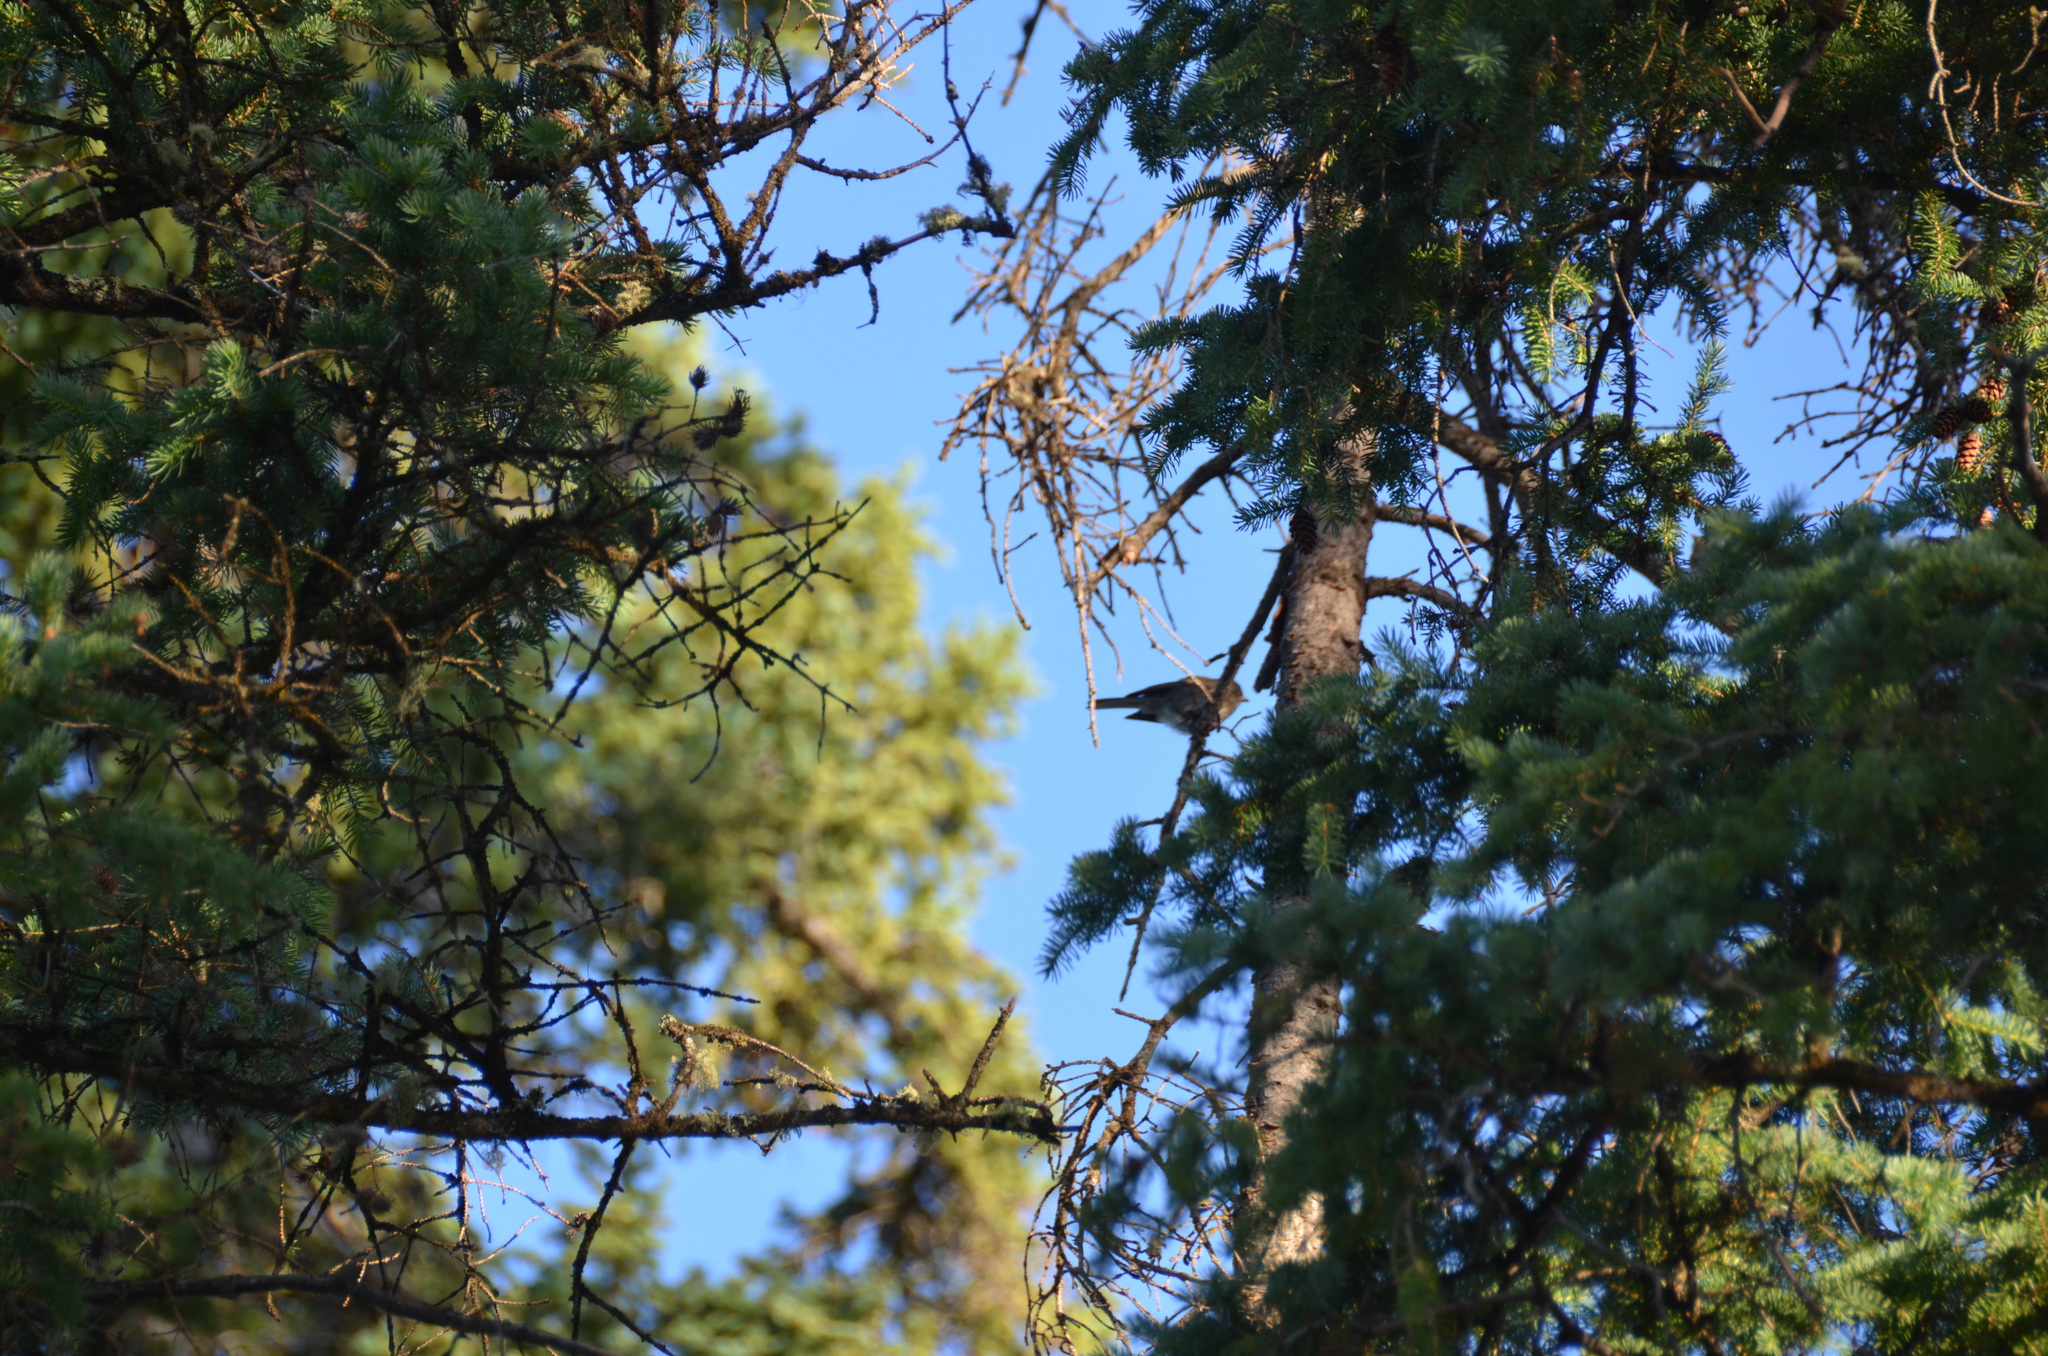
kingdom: Animalia
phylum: Chordata
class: Aves
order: Passeriformes
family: Passerellidae
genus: Junco
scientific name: Junco hyemalis
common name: Dark-eyed junco
